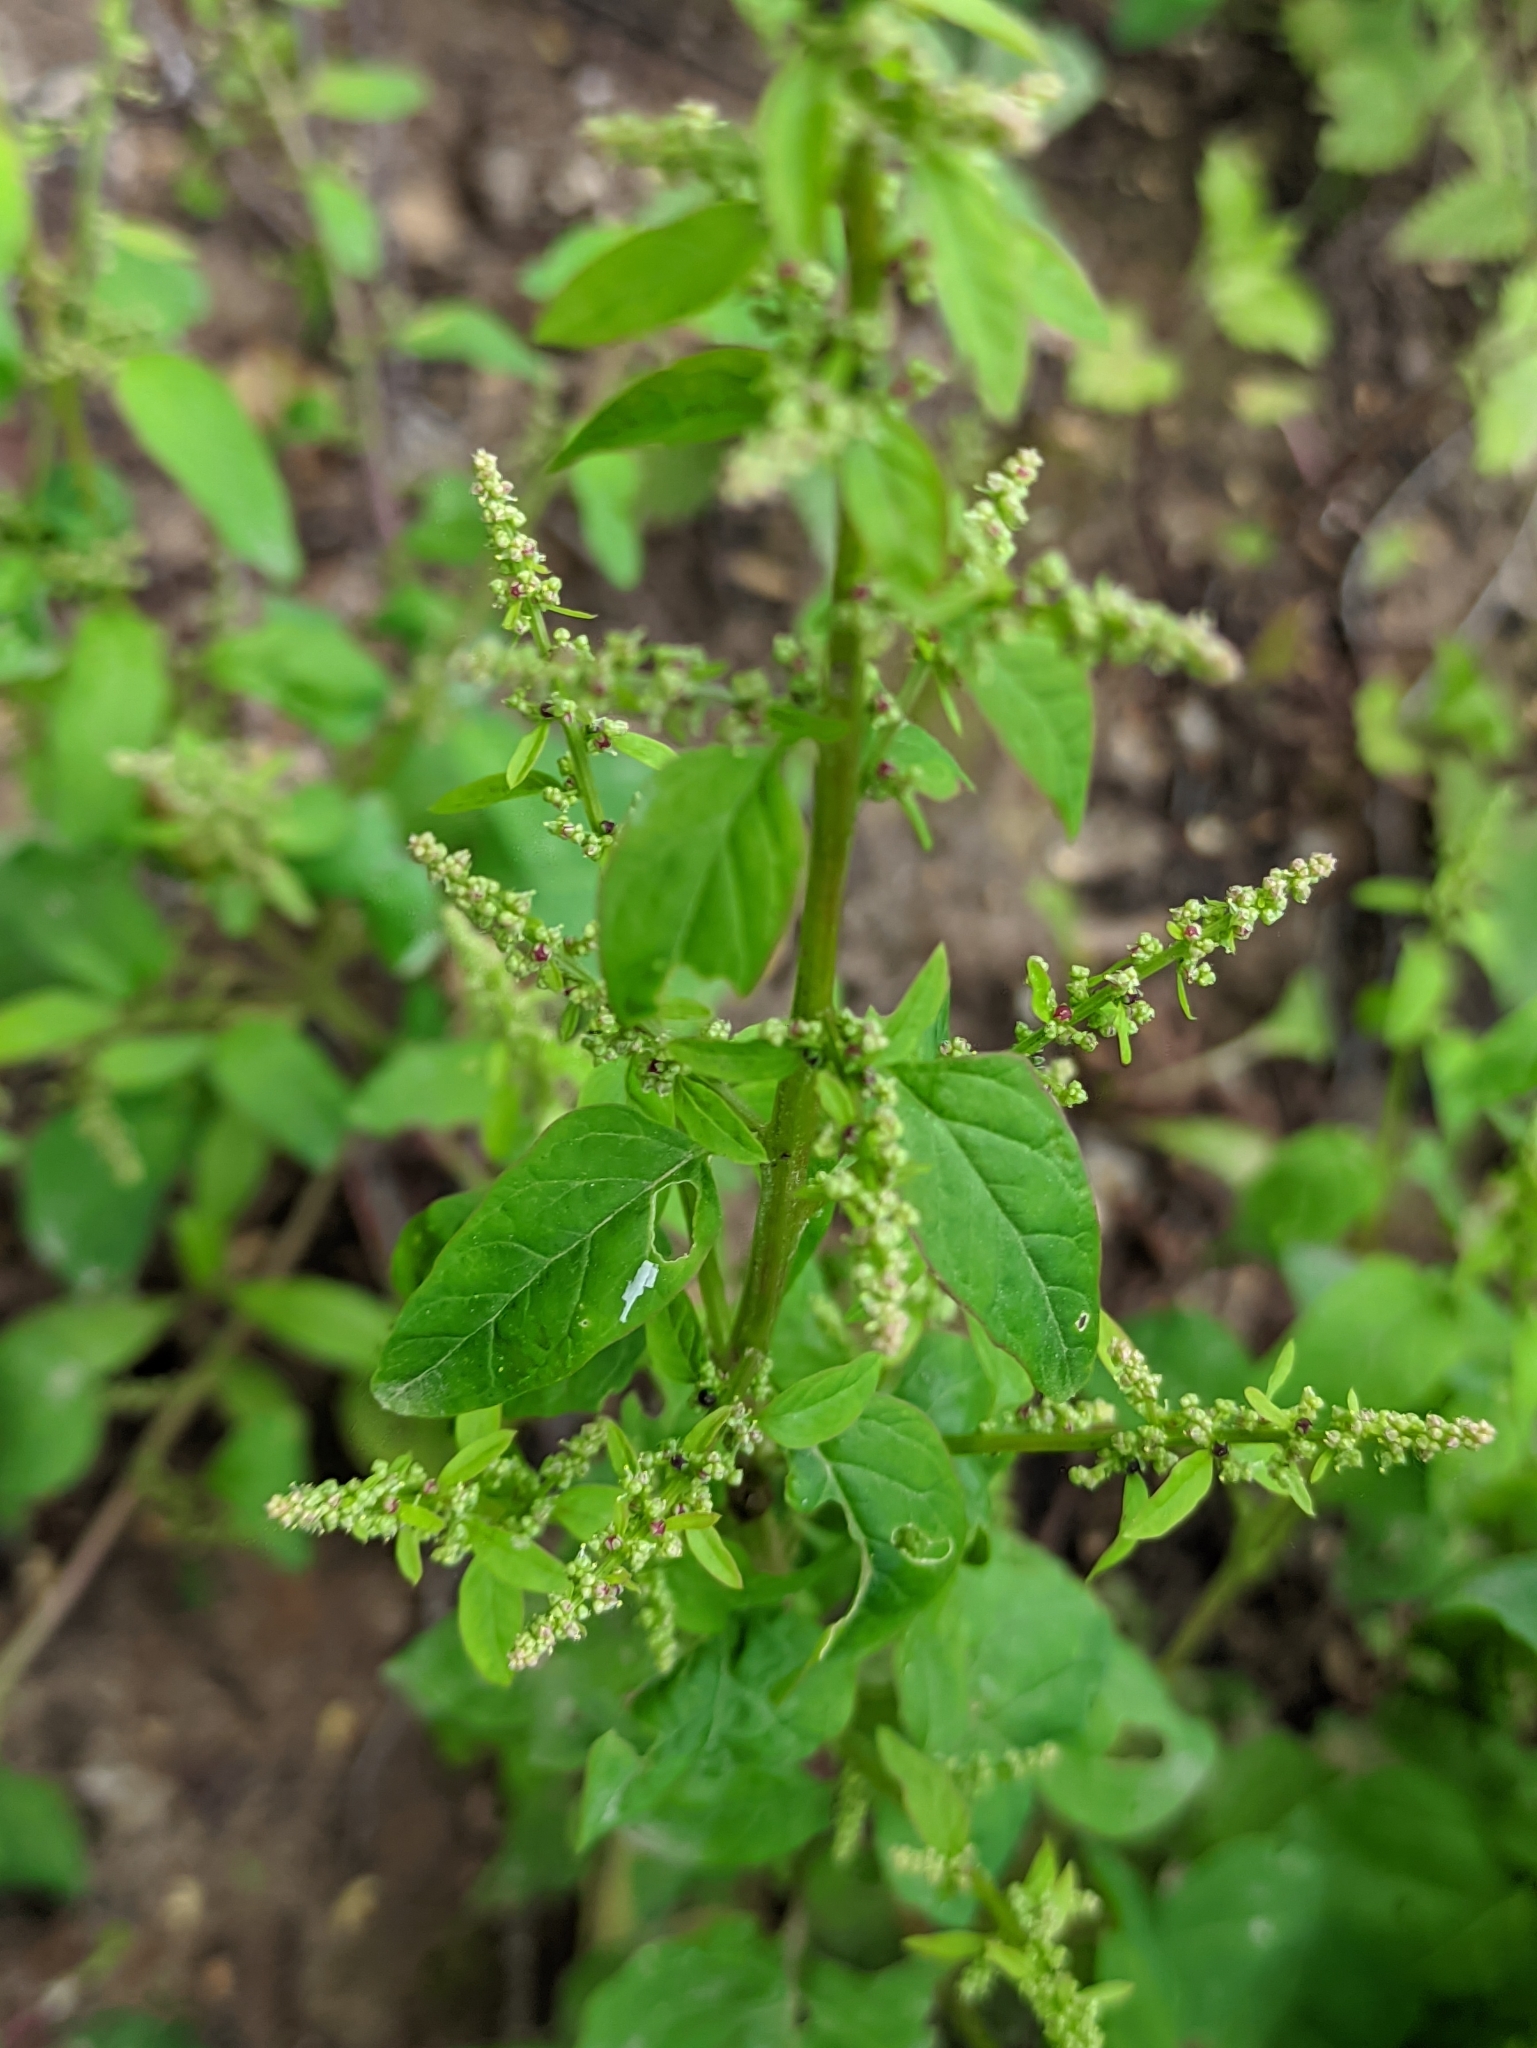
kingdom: Plantae
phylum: Tracheophyta
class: Magnoliopsida
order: Caryophyllales
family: Amaranthaceae
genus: Lipandra
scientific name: Lipandra polysperma
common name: Many-seed goosefoot
